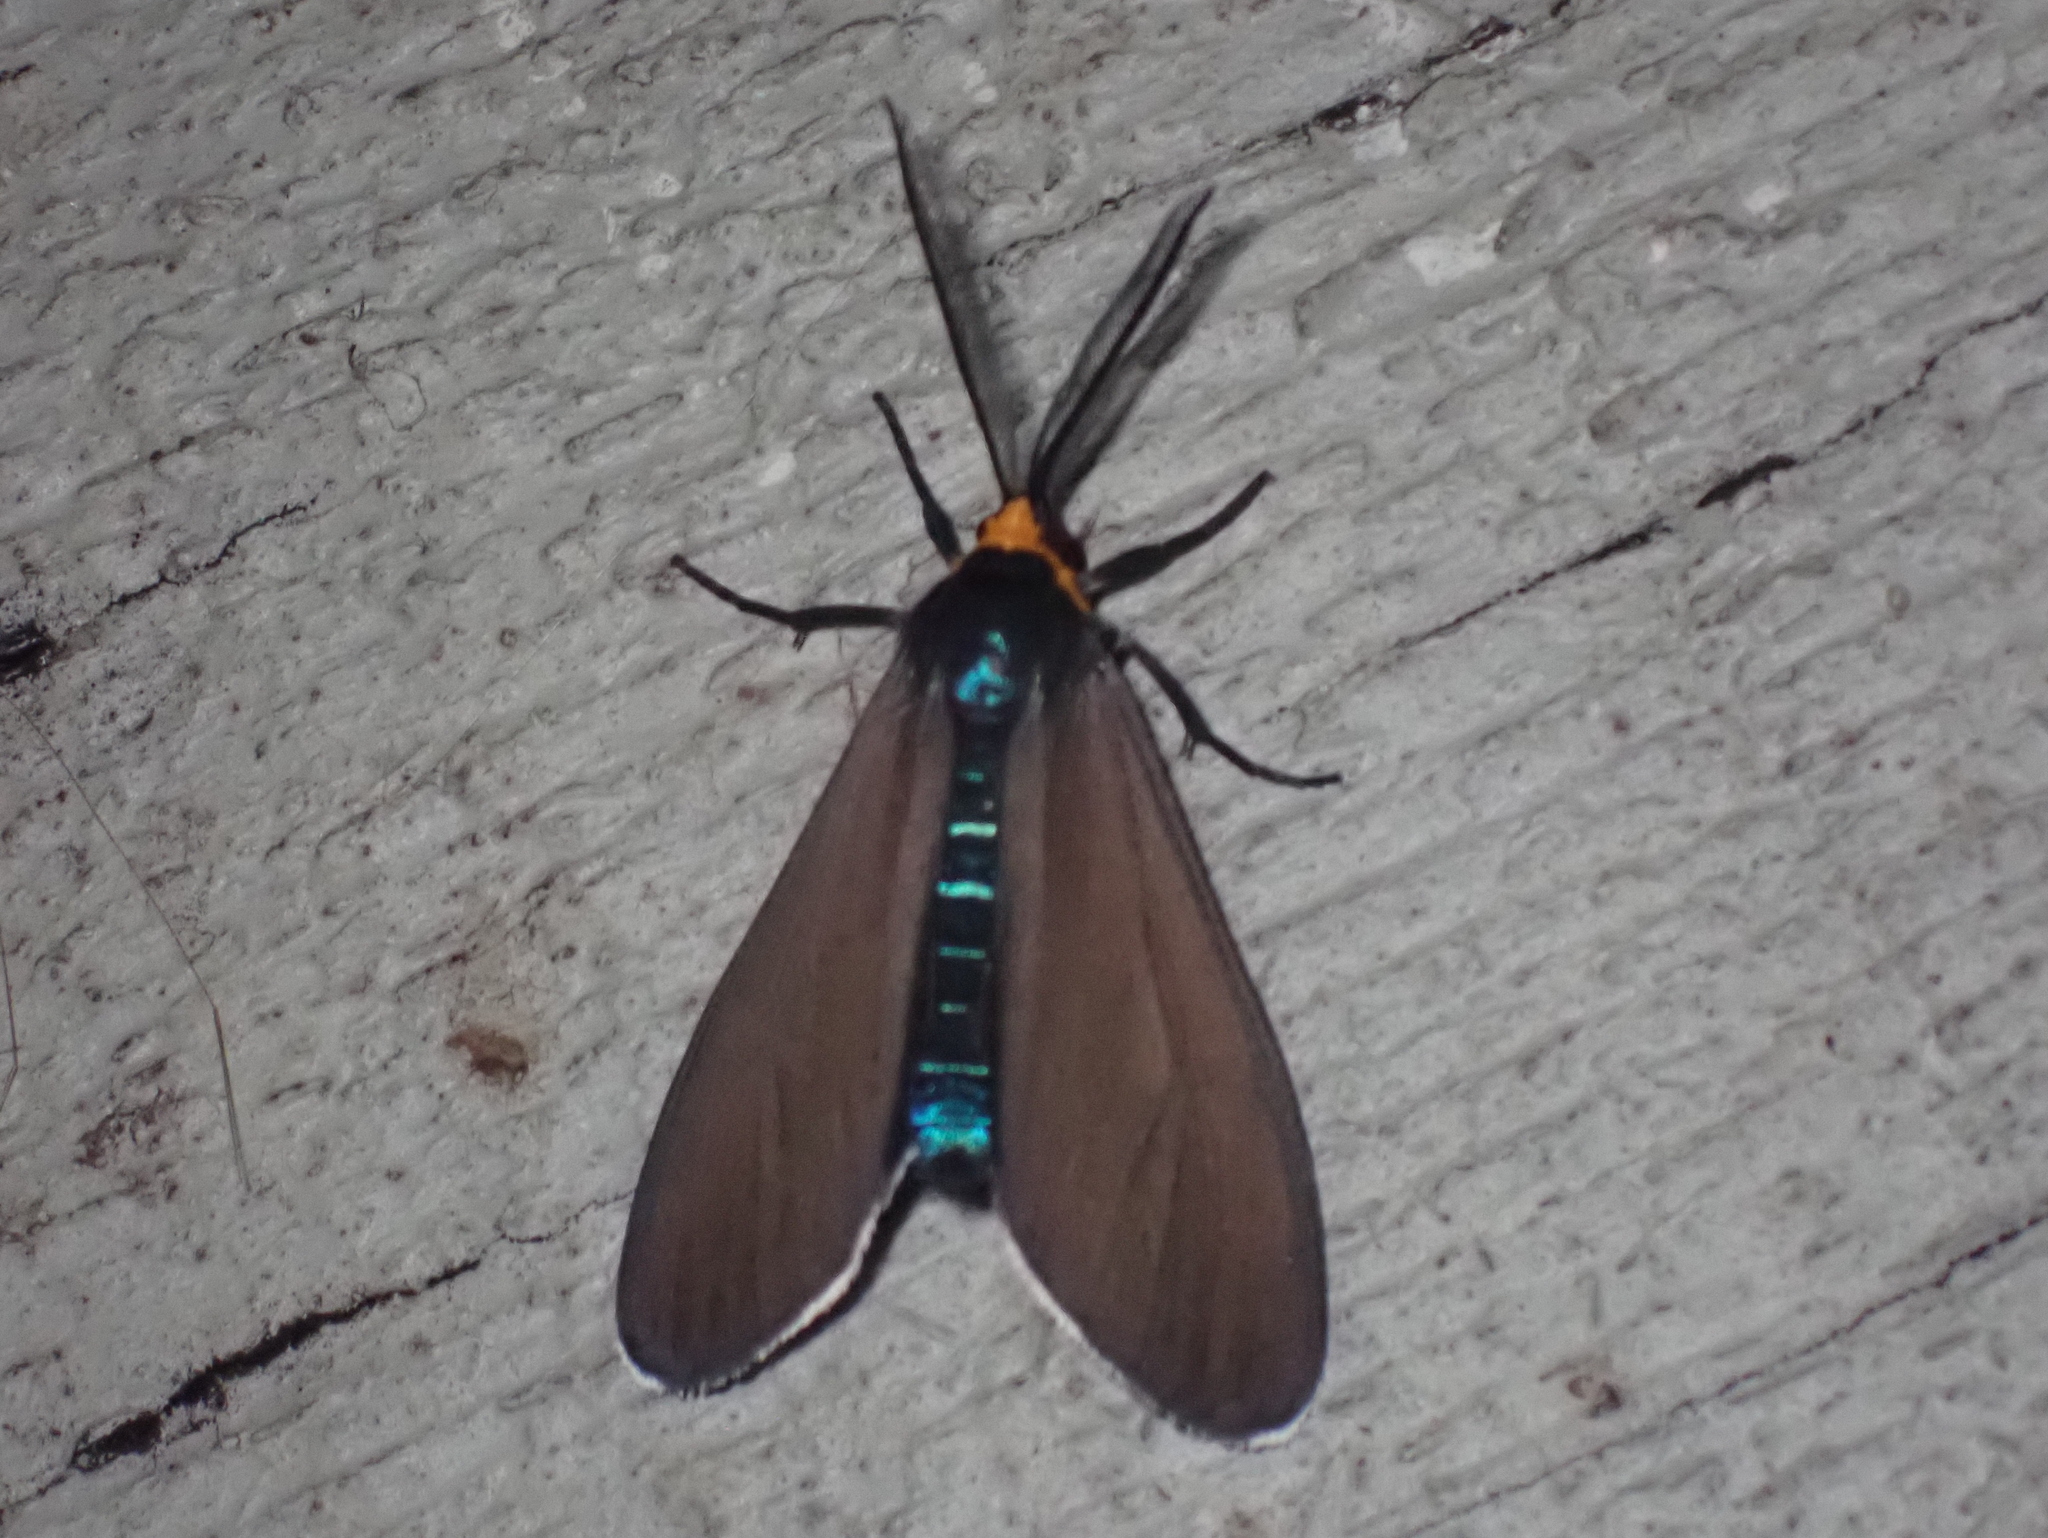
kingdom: Animalia
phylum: Arthropoda
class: Insecta
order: Lepidoptera
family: Erebidae
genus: Ctenucha
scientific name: Ctenucha virginica
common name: Virginia ctenucha moth
